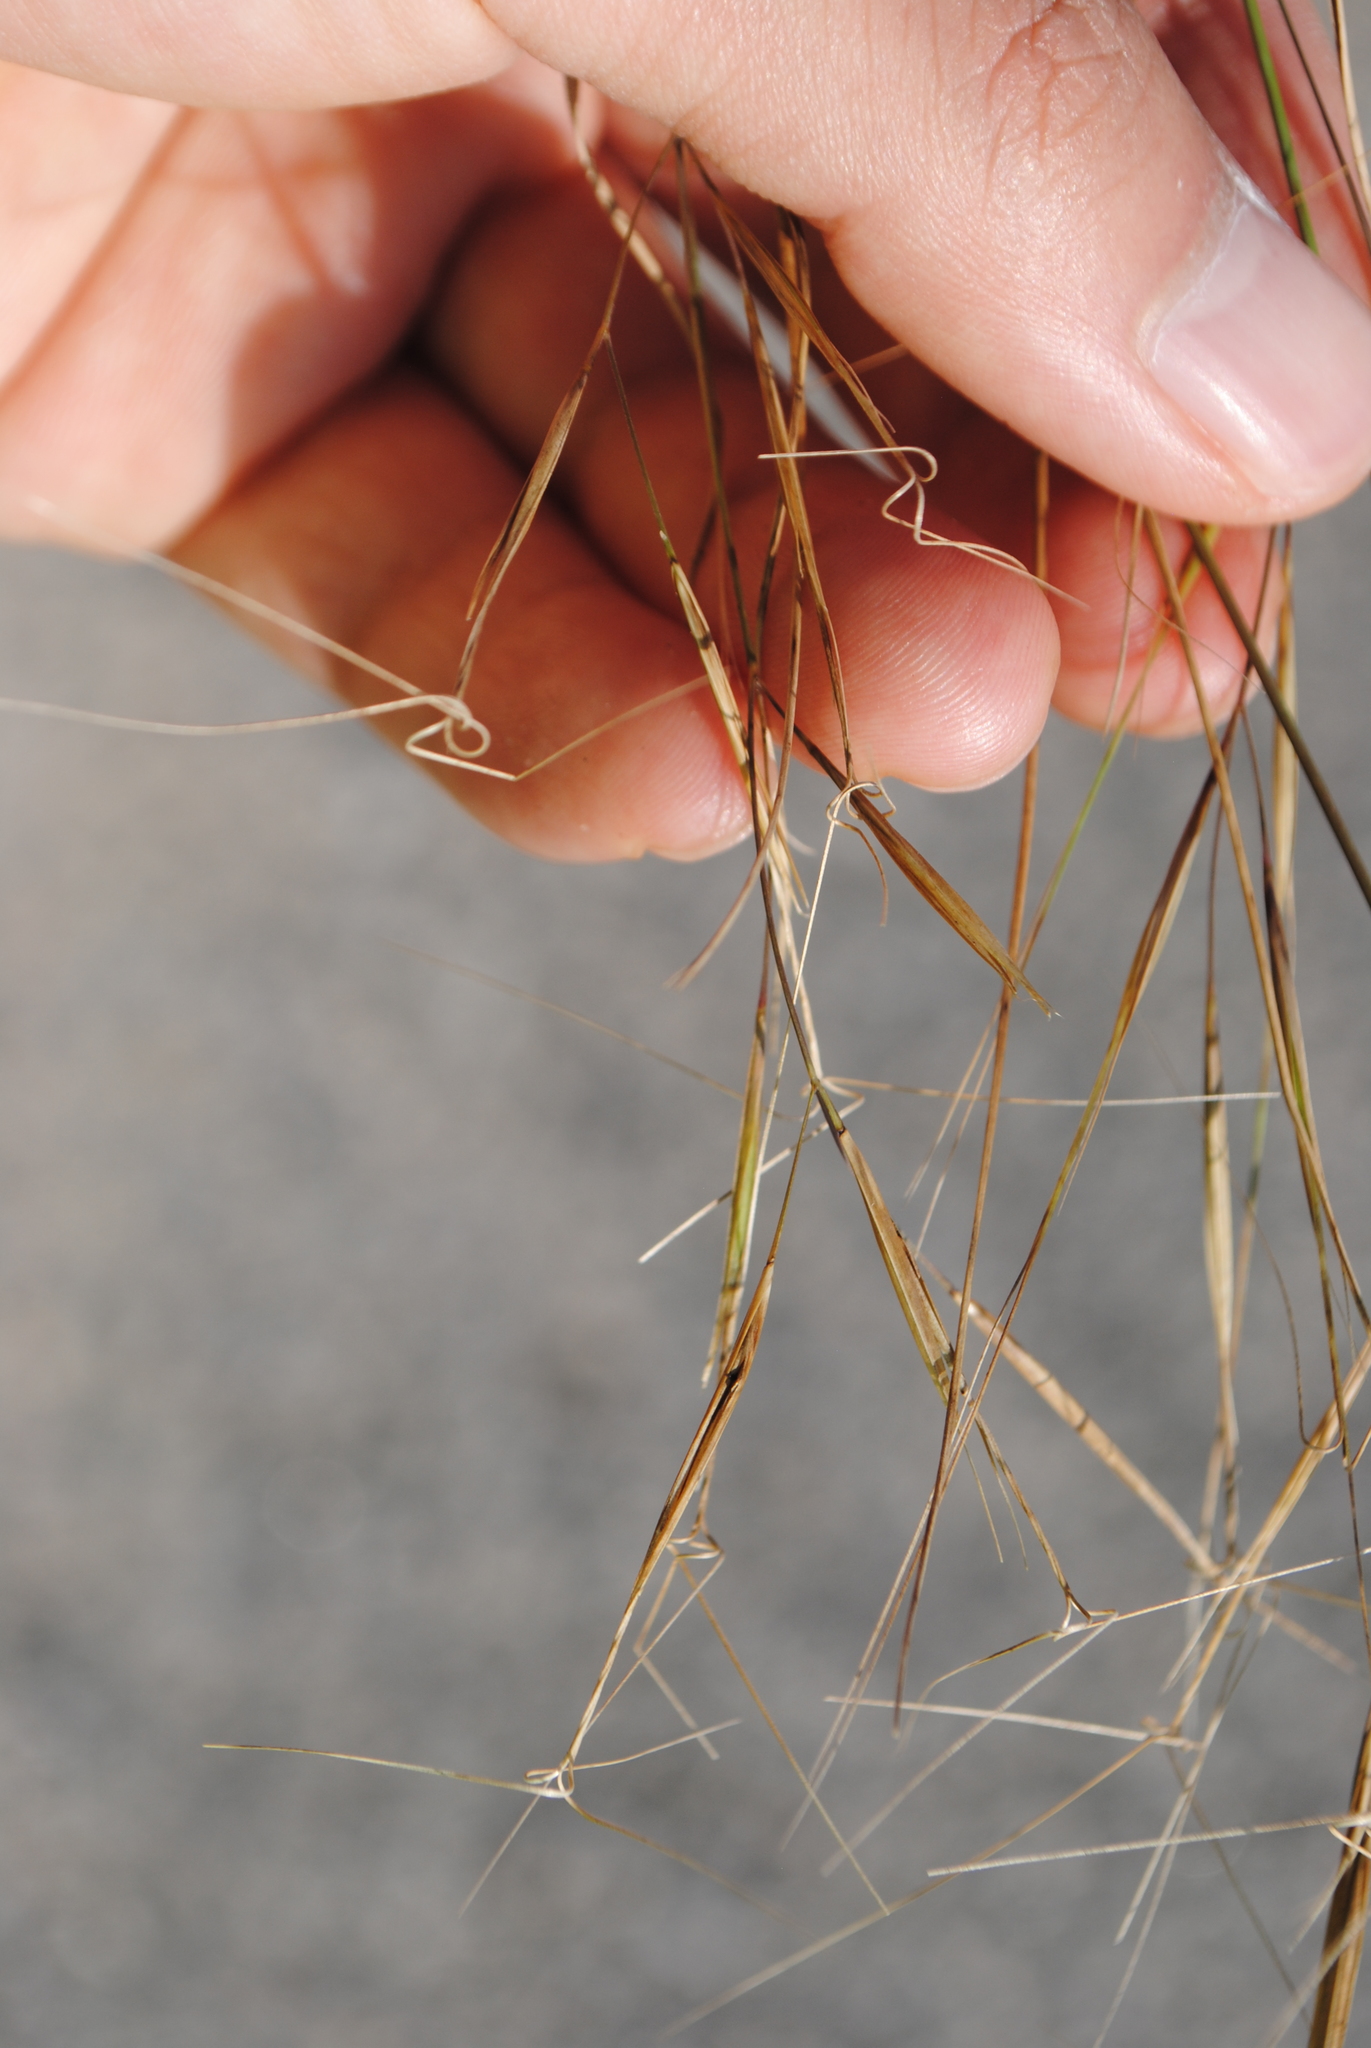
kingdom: Plantae
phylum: Tracheophyta
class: Liliopsida
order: Poales
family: Poaceae
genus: Aristida
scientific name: Aristida tuberculosa
